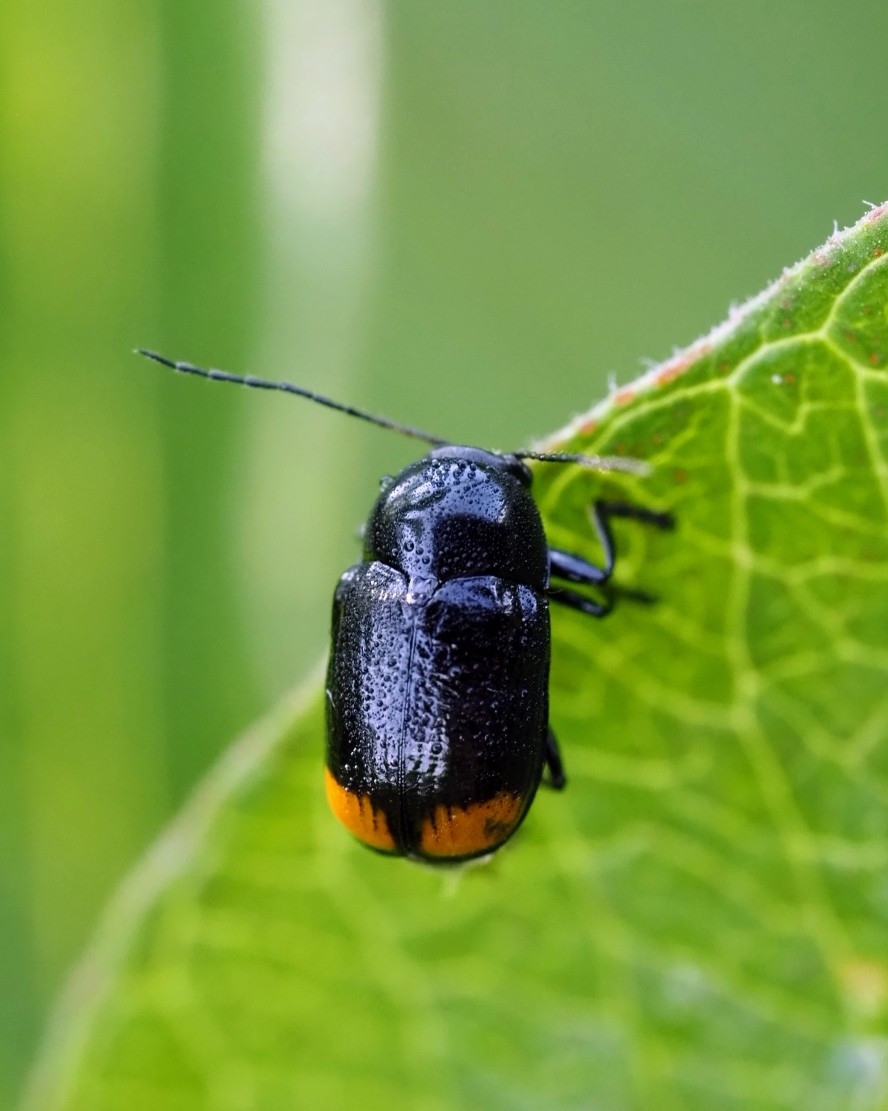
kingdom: Animalia
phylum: Arthropoda
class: Insecta
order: Coleoptera
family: Chrysomelidae
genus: Cryptocephalus
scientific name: Cryptocephalus biguttatus
